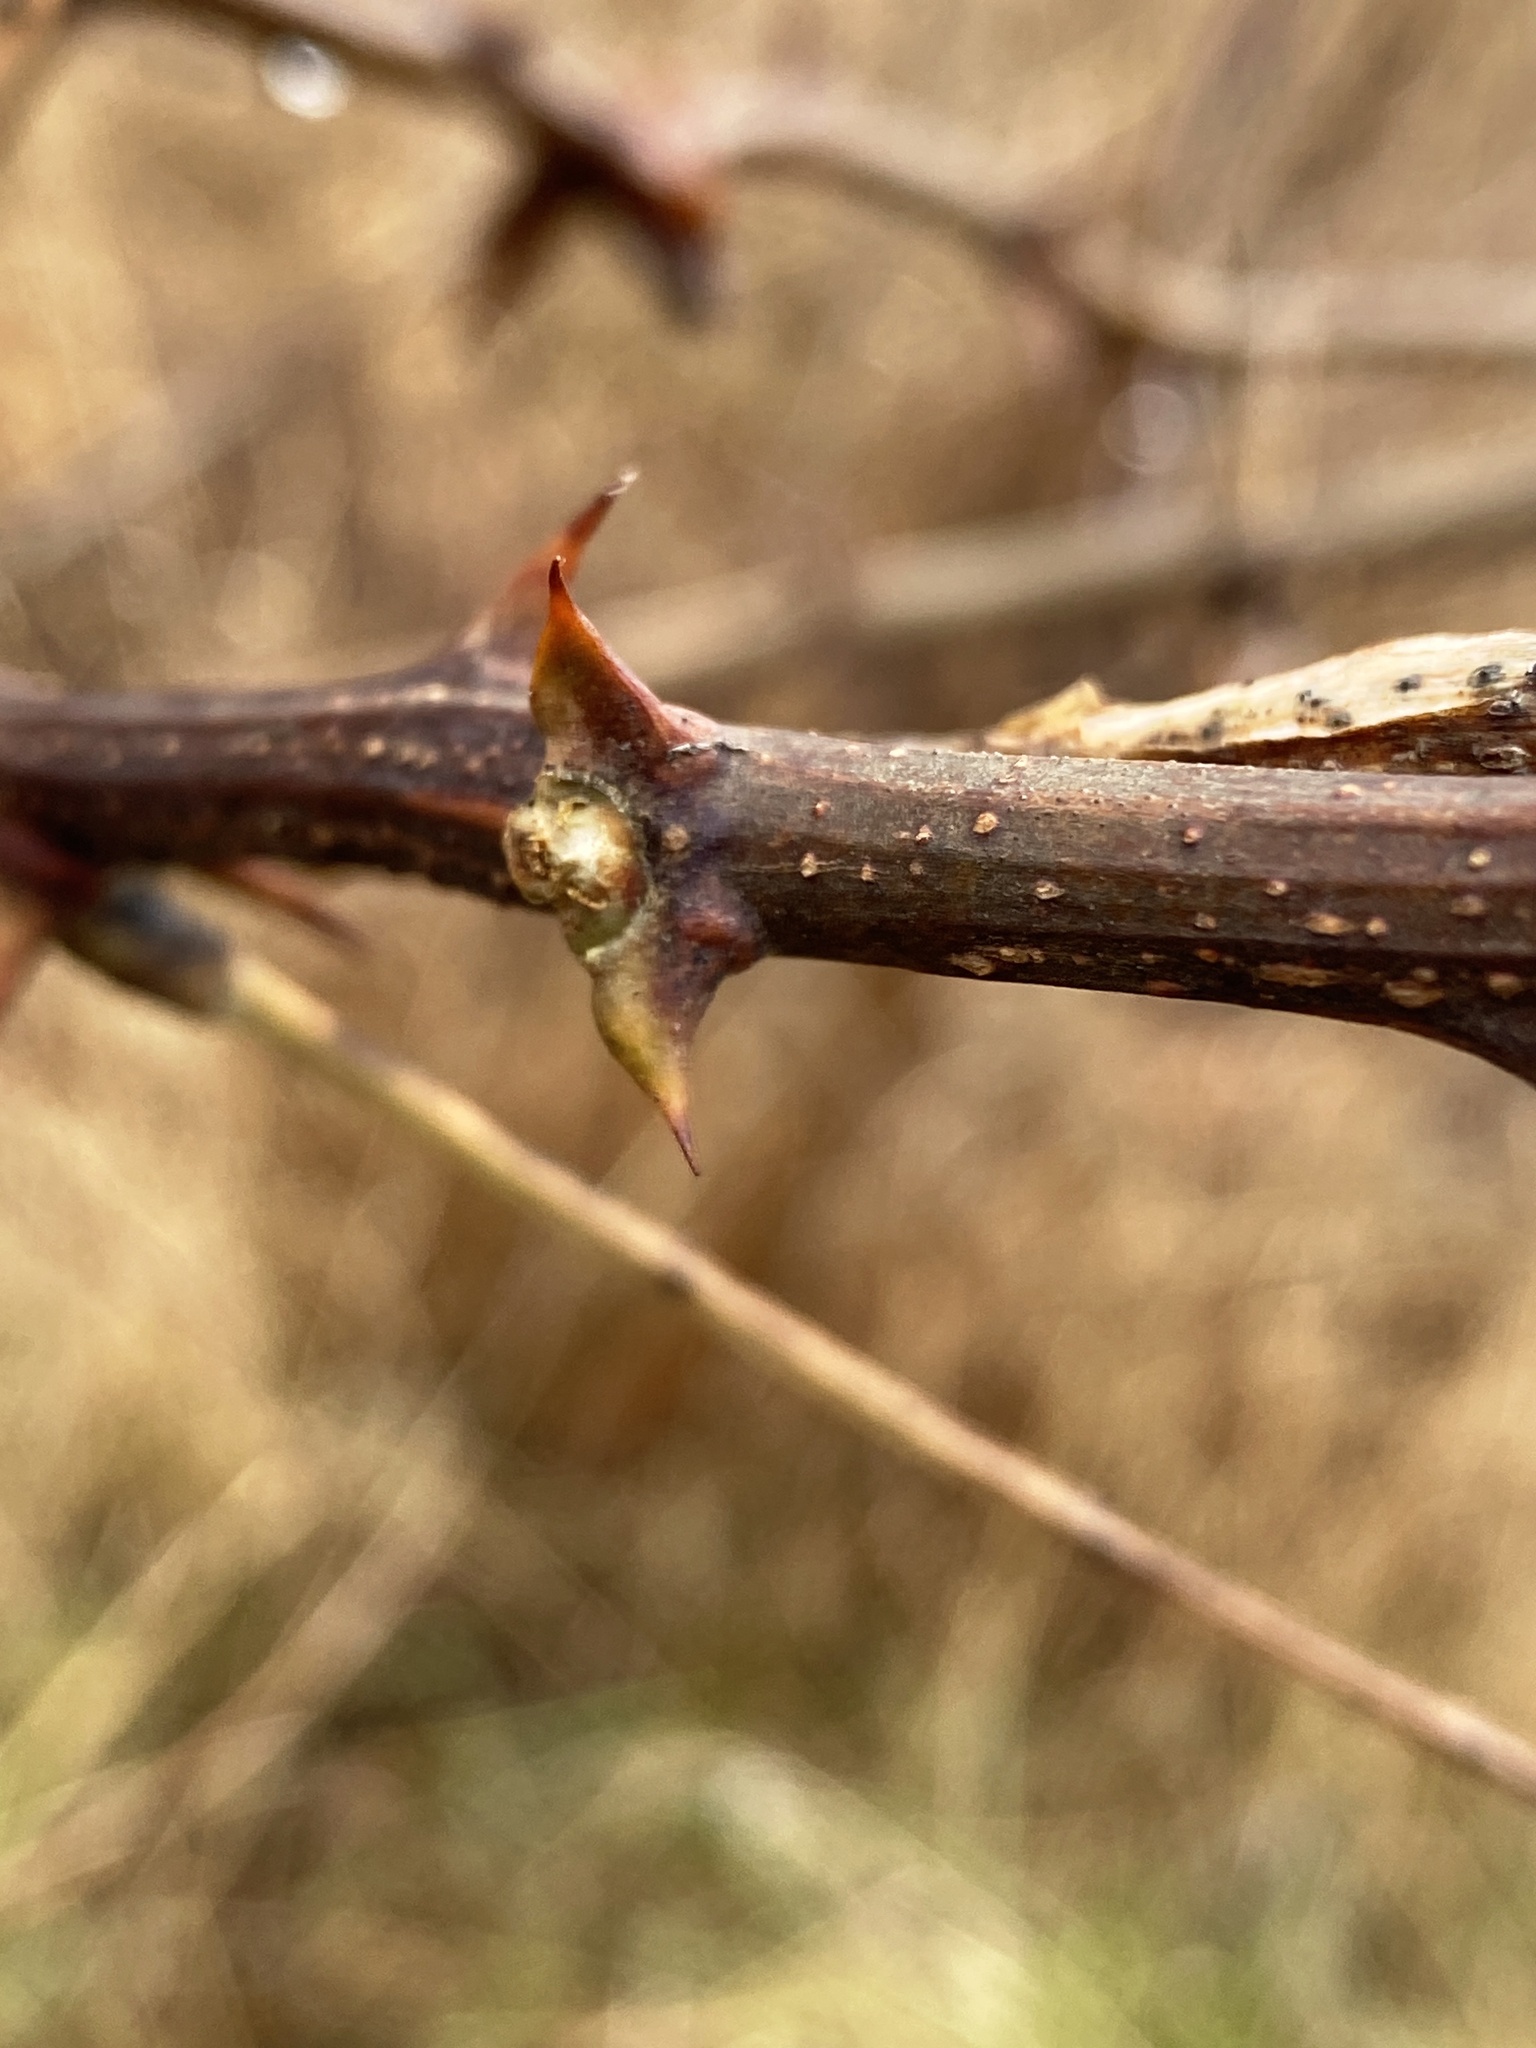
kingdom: Plantae
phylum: Tracheophyta
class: Magnoliopsida
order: Fabales
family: Fabaceae
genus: Robinia
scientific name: Robinia pseudoacacia
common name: Black locust
